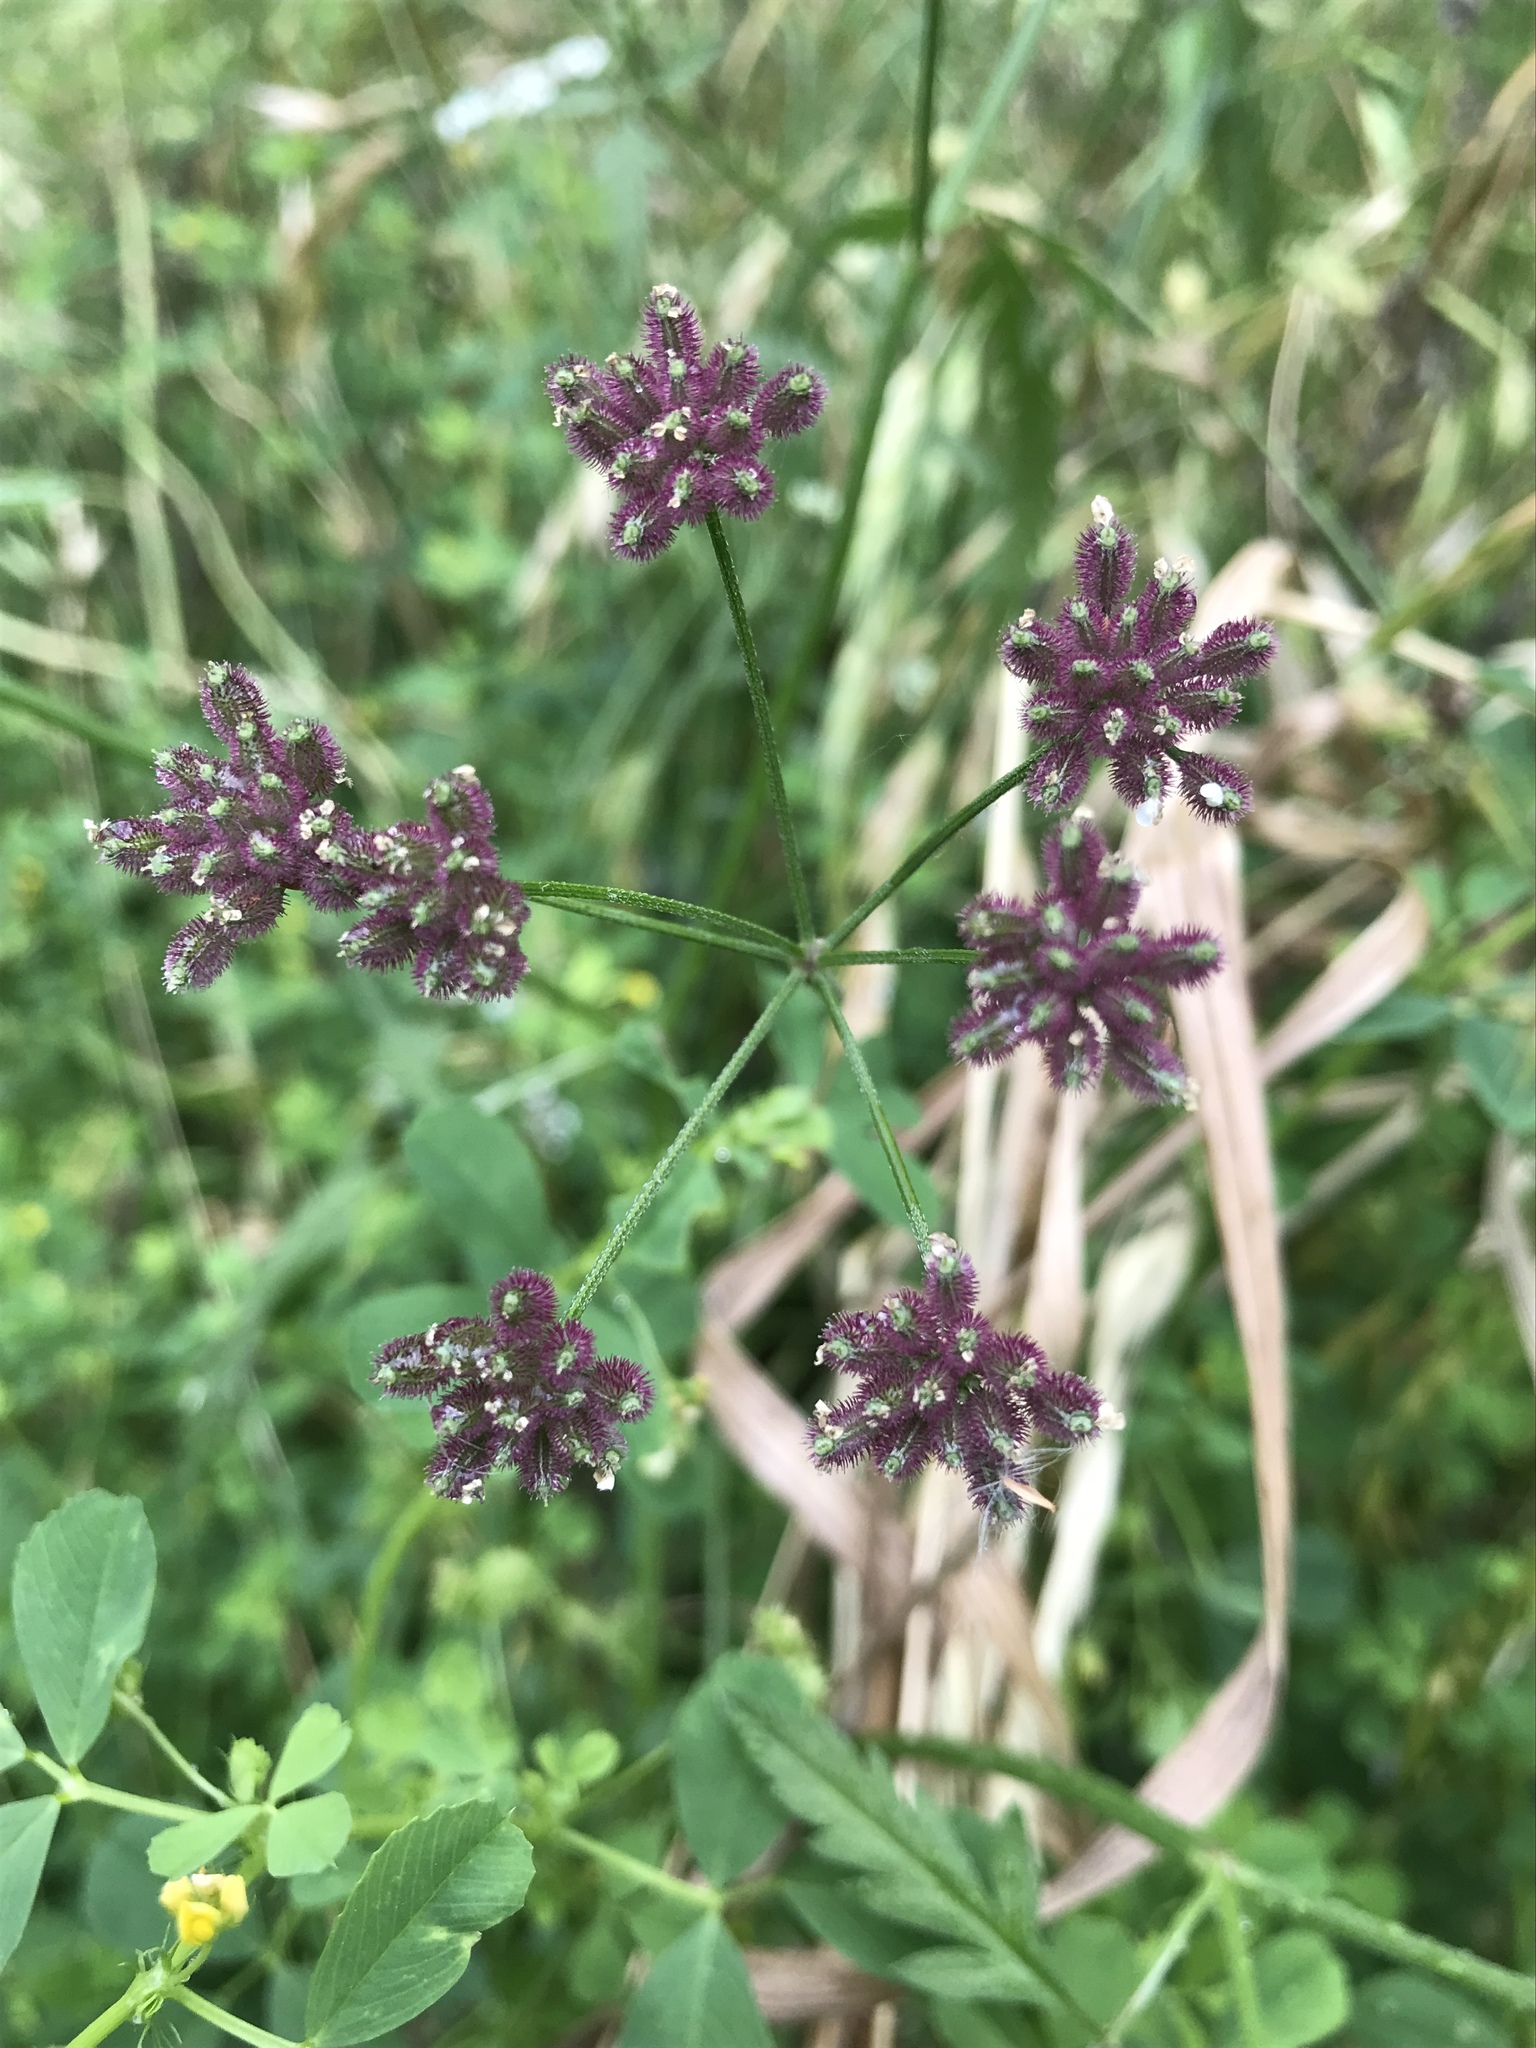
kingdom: Plantae
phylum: Tracheophyta
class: Magnoliopsida
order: Apiales
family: Apiaceae
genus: Torilis
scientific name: Torilis arvensis
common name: Spreading hedge-parsley
